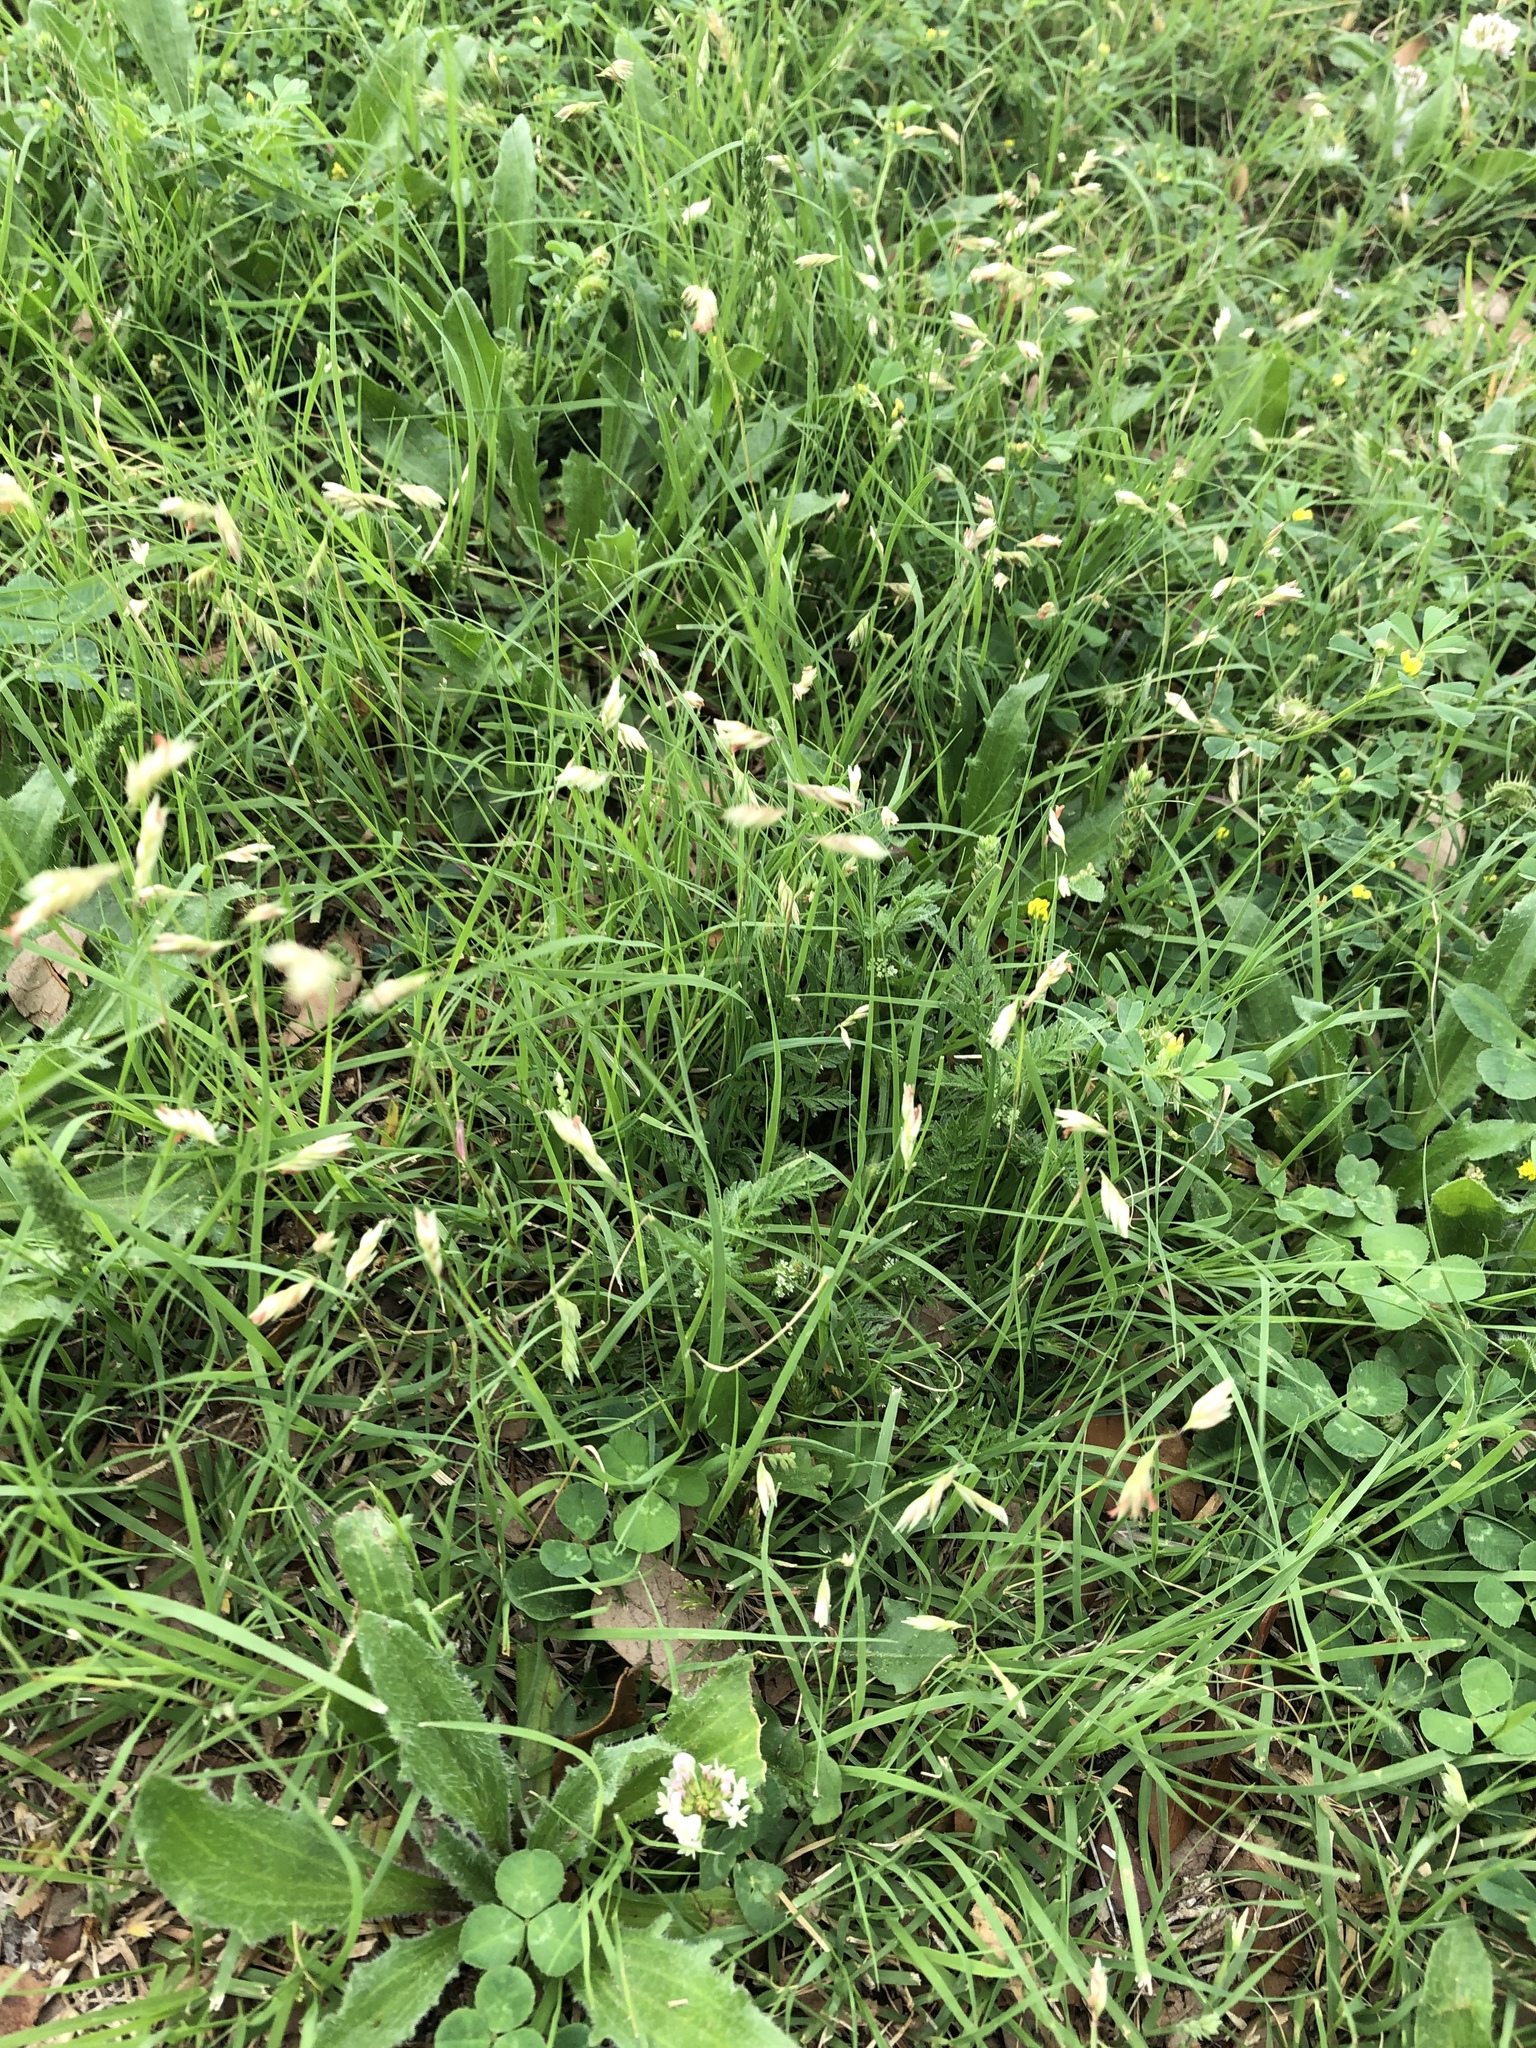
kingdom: Plantae
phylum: Tracheophyta
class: Liliopsida
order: Poales
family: Poaceae
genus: Bouteloua
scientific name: Bouteloua dactyloides
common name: Buffalo grass
